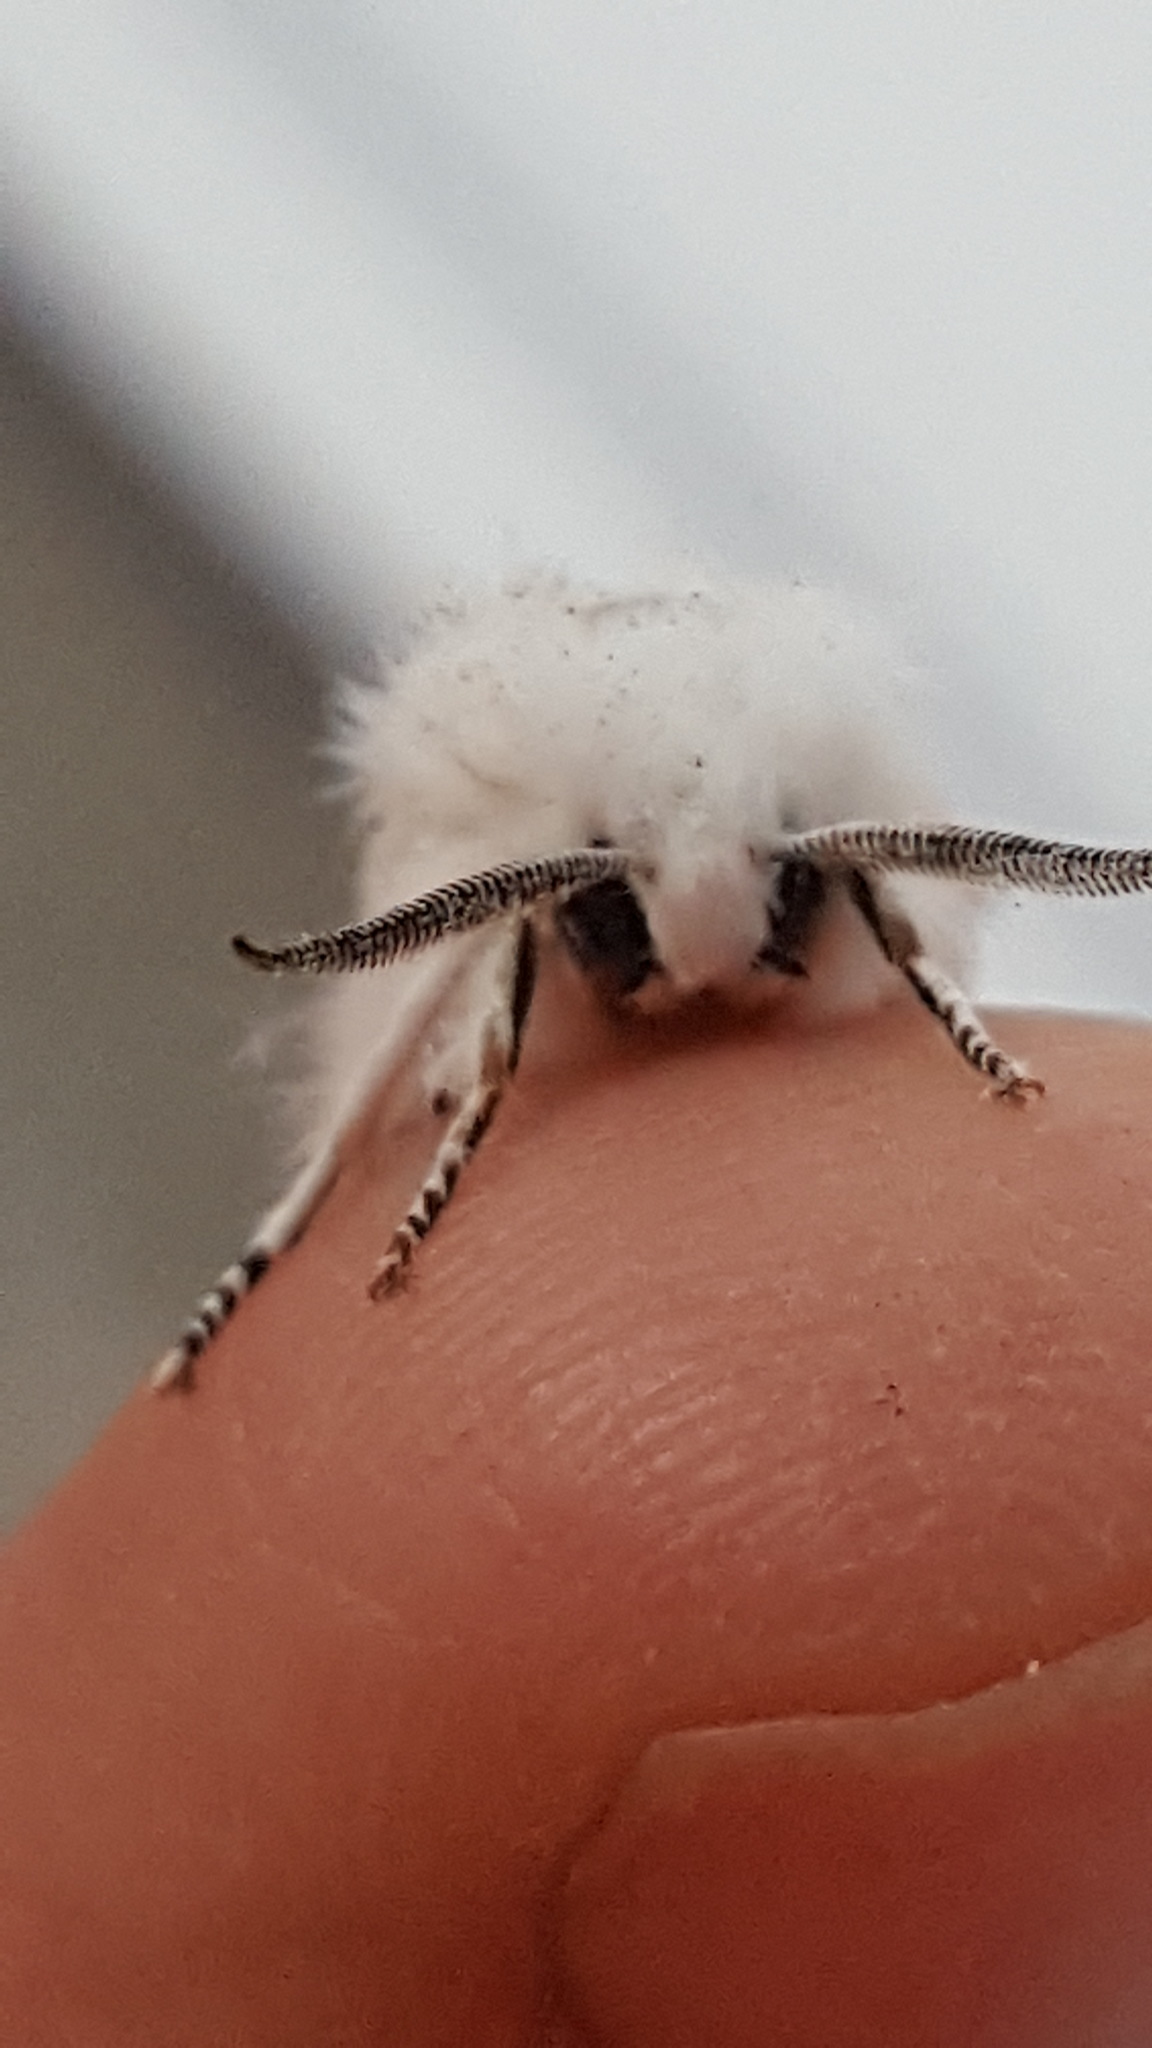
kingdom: Animalia
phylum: Arthropoda
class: Insecta
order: Lepidoptera
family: Erebidae
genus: Spilosoma
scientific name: Spilosoma virginica
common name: Virginia tiger moth
